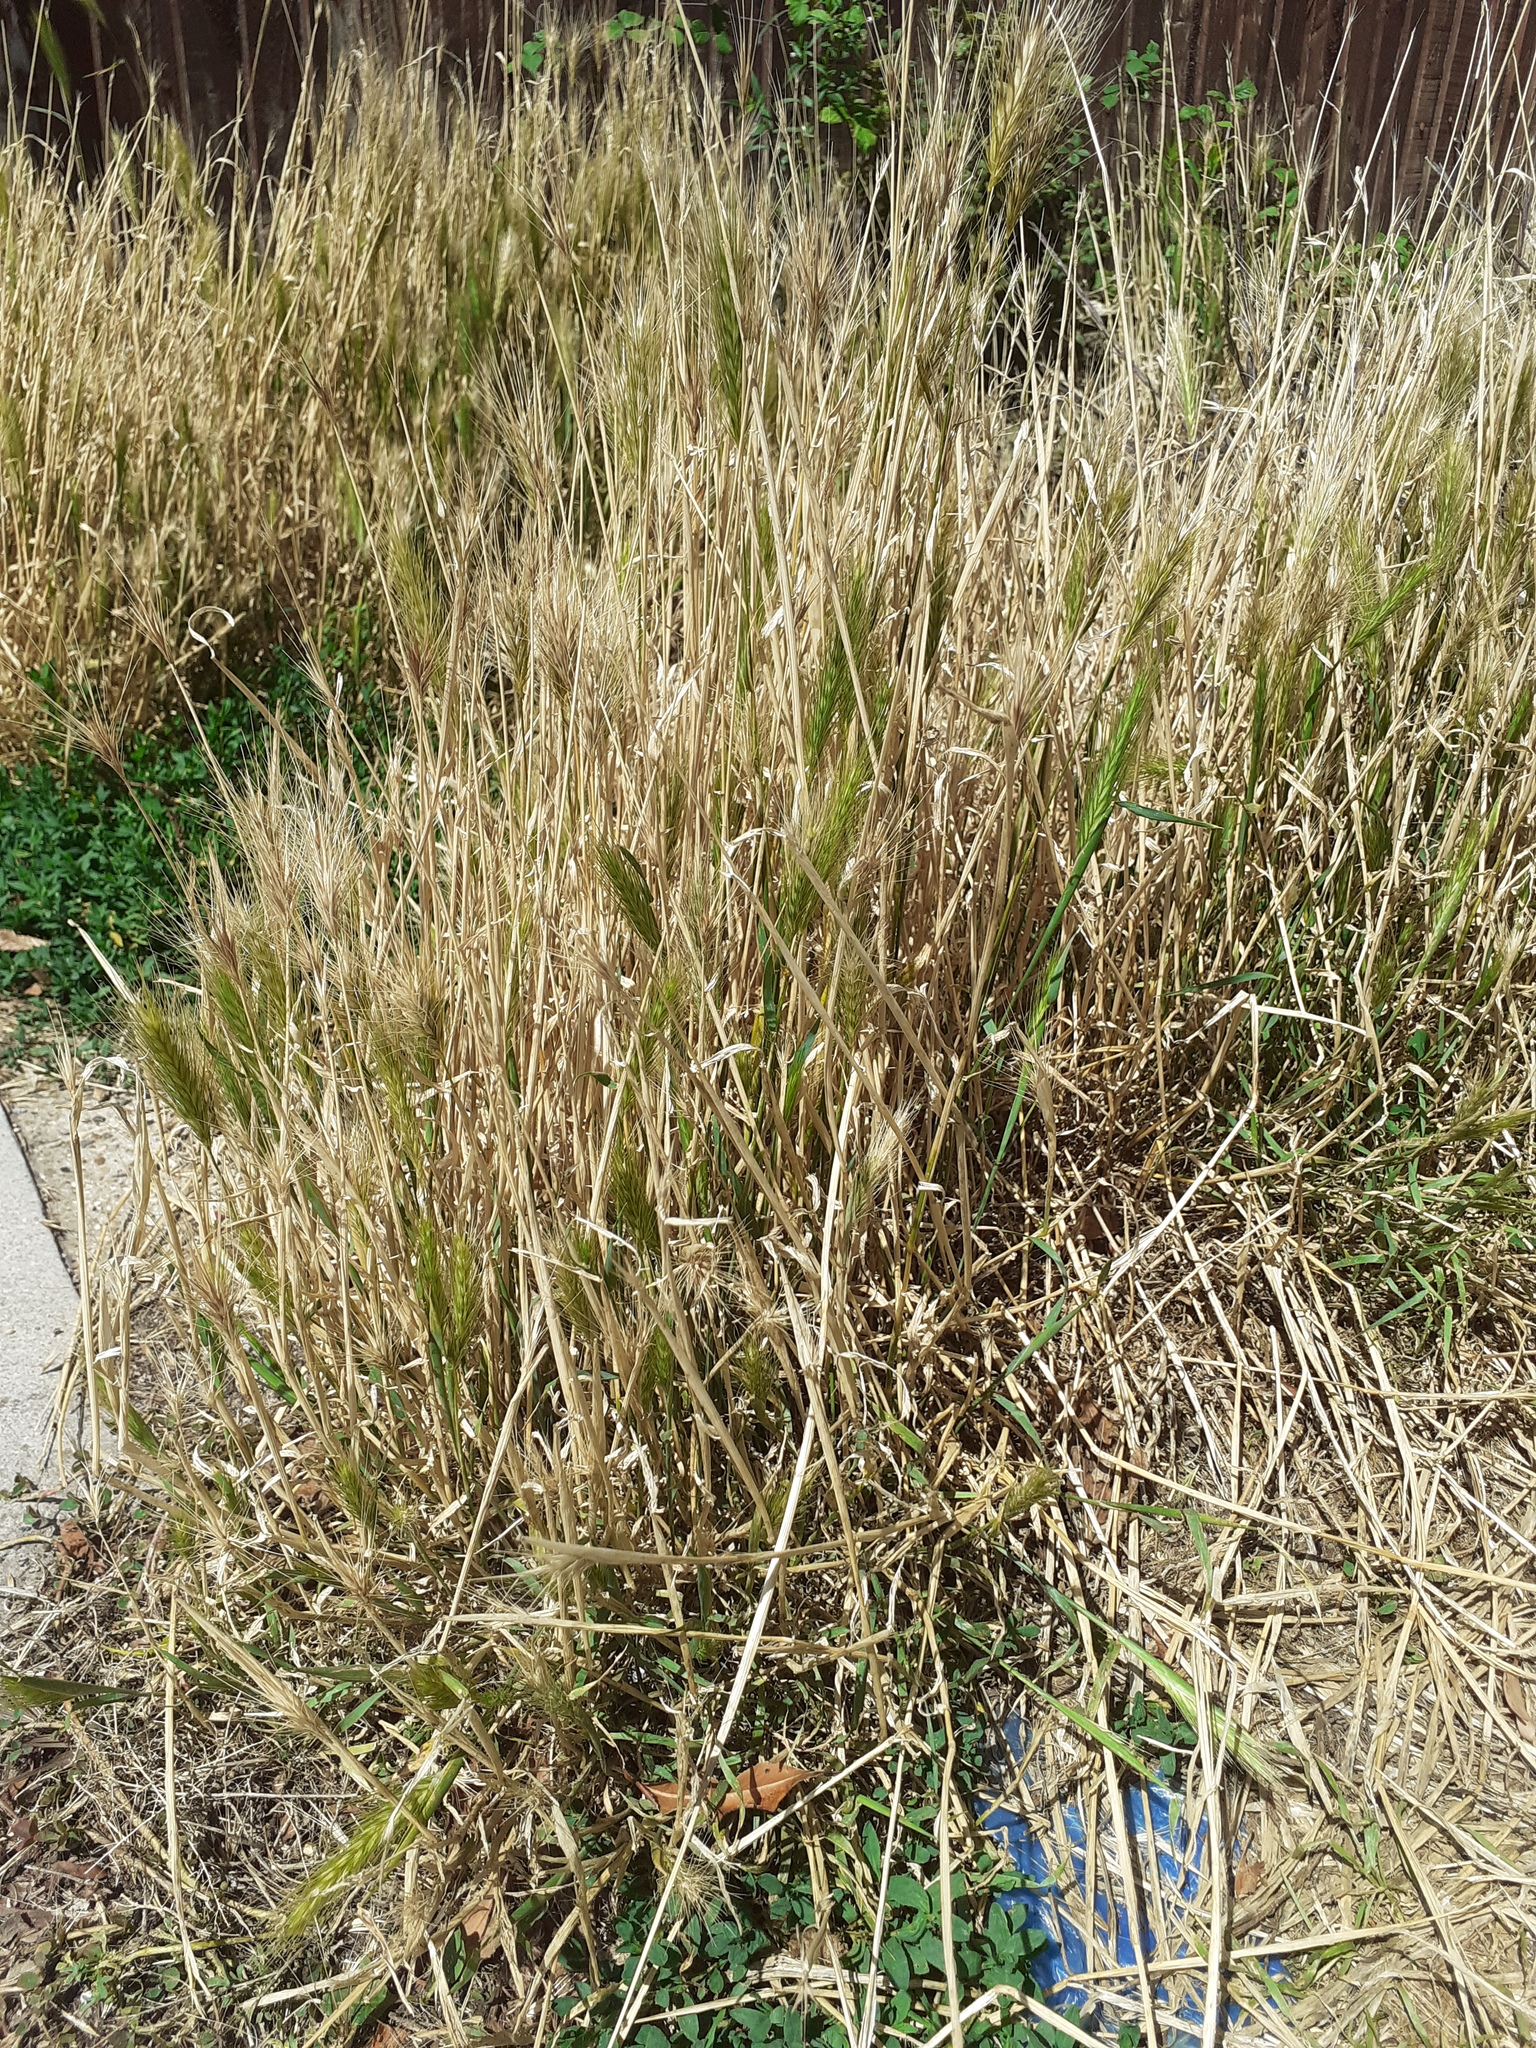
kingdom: Plantae
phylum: Tracheophyta
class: Liliopsida
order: Poales
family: Poaceae
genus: Hordeum
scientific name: Hordeum murinum
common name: Wall barley
